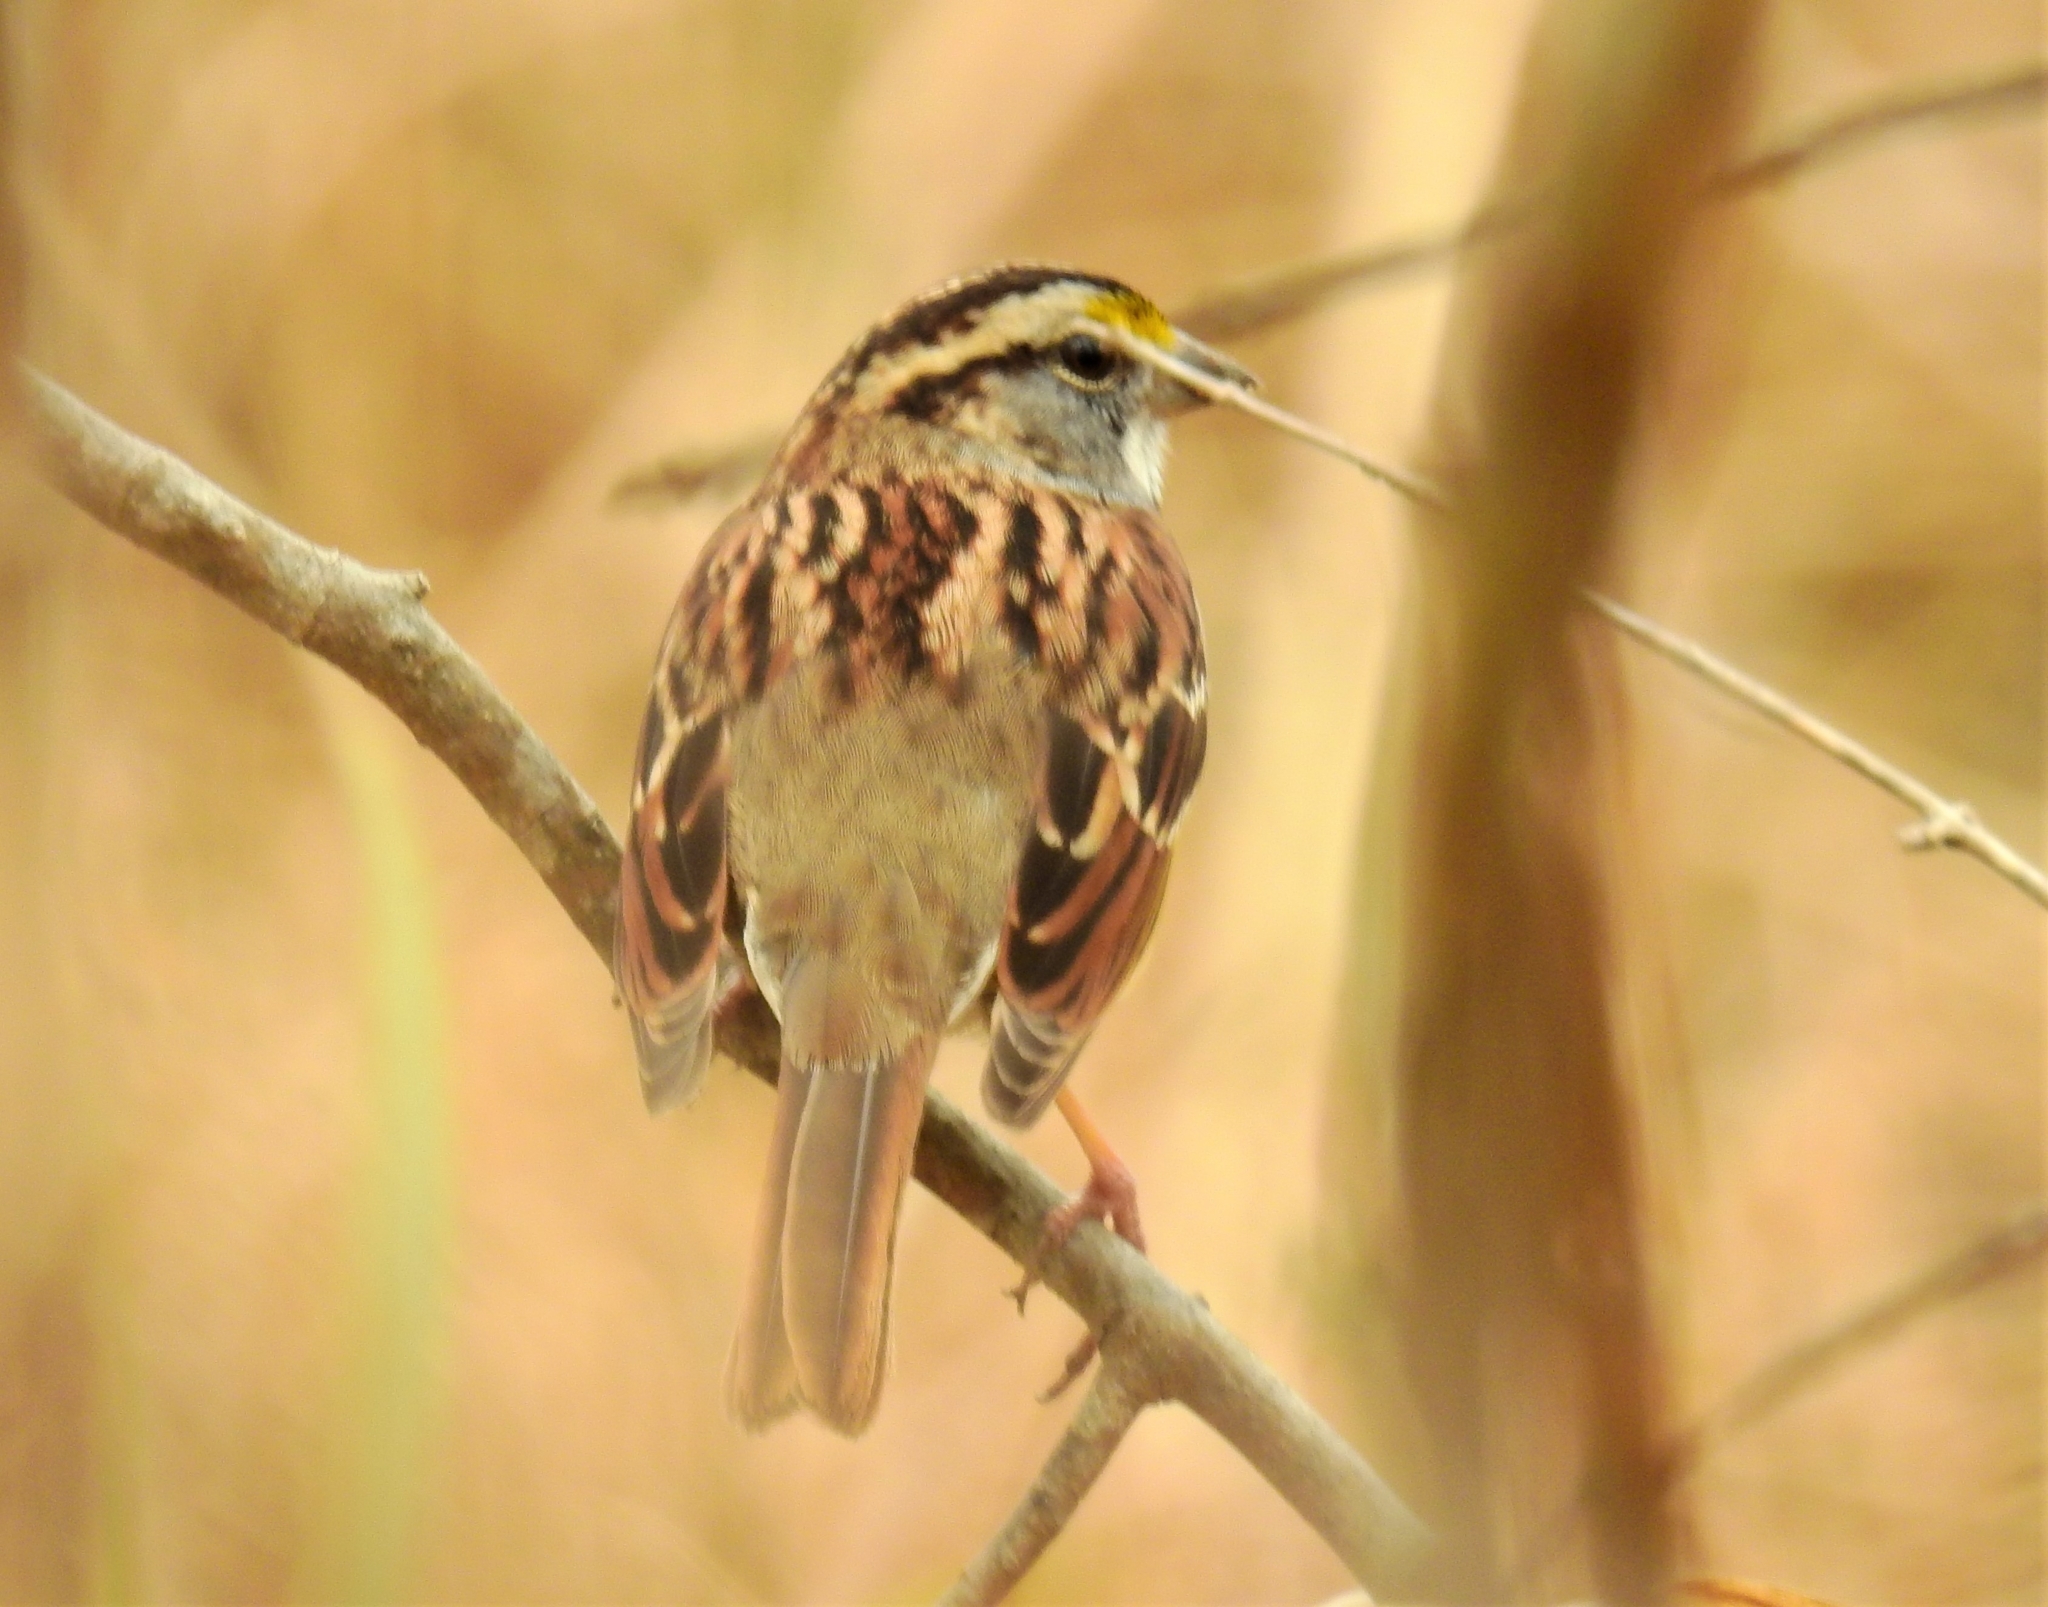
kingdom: Animalia
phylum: Chordata
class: Aves
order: Passeriformes
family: Passerellidae
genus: Zonotrichia
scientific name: Zonotrichia albicollis
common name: White-throated sparrow
